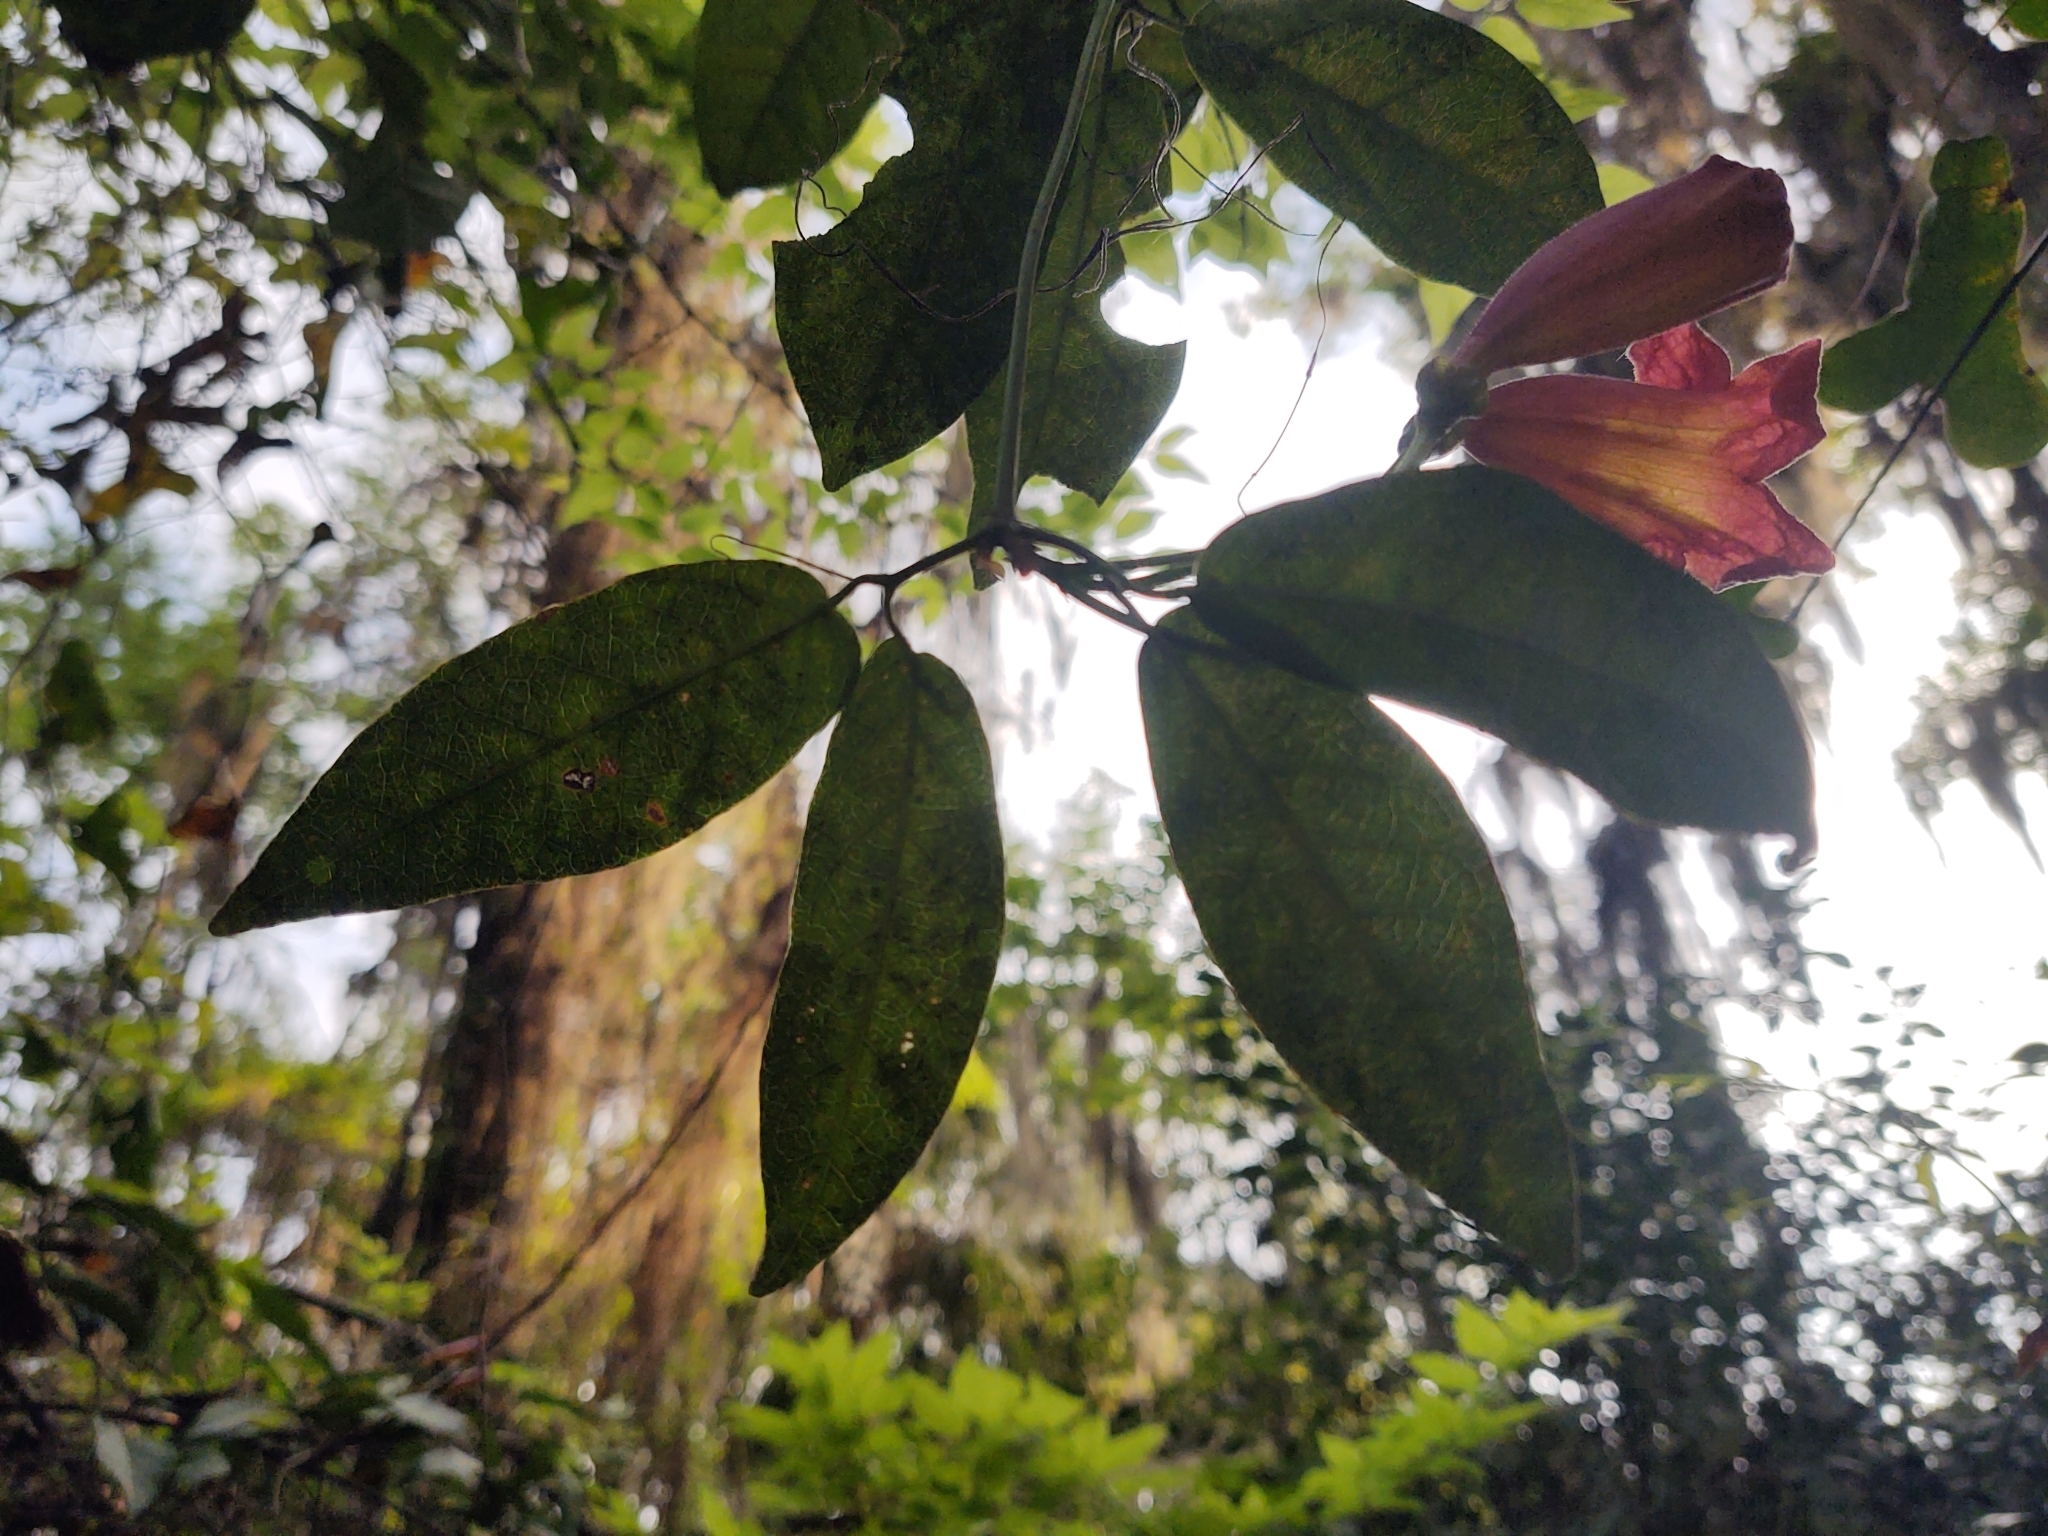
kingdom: Plantae
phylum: Tracheophyta
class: Magnoliopsida
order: Lamiales
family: Bignoniaceae
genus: Bignonia
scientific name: Bignonia capreolata
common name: Crossvine
